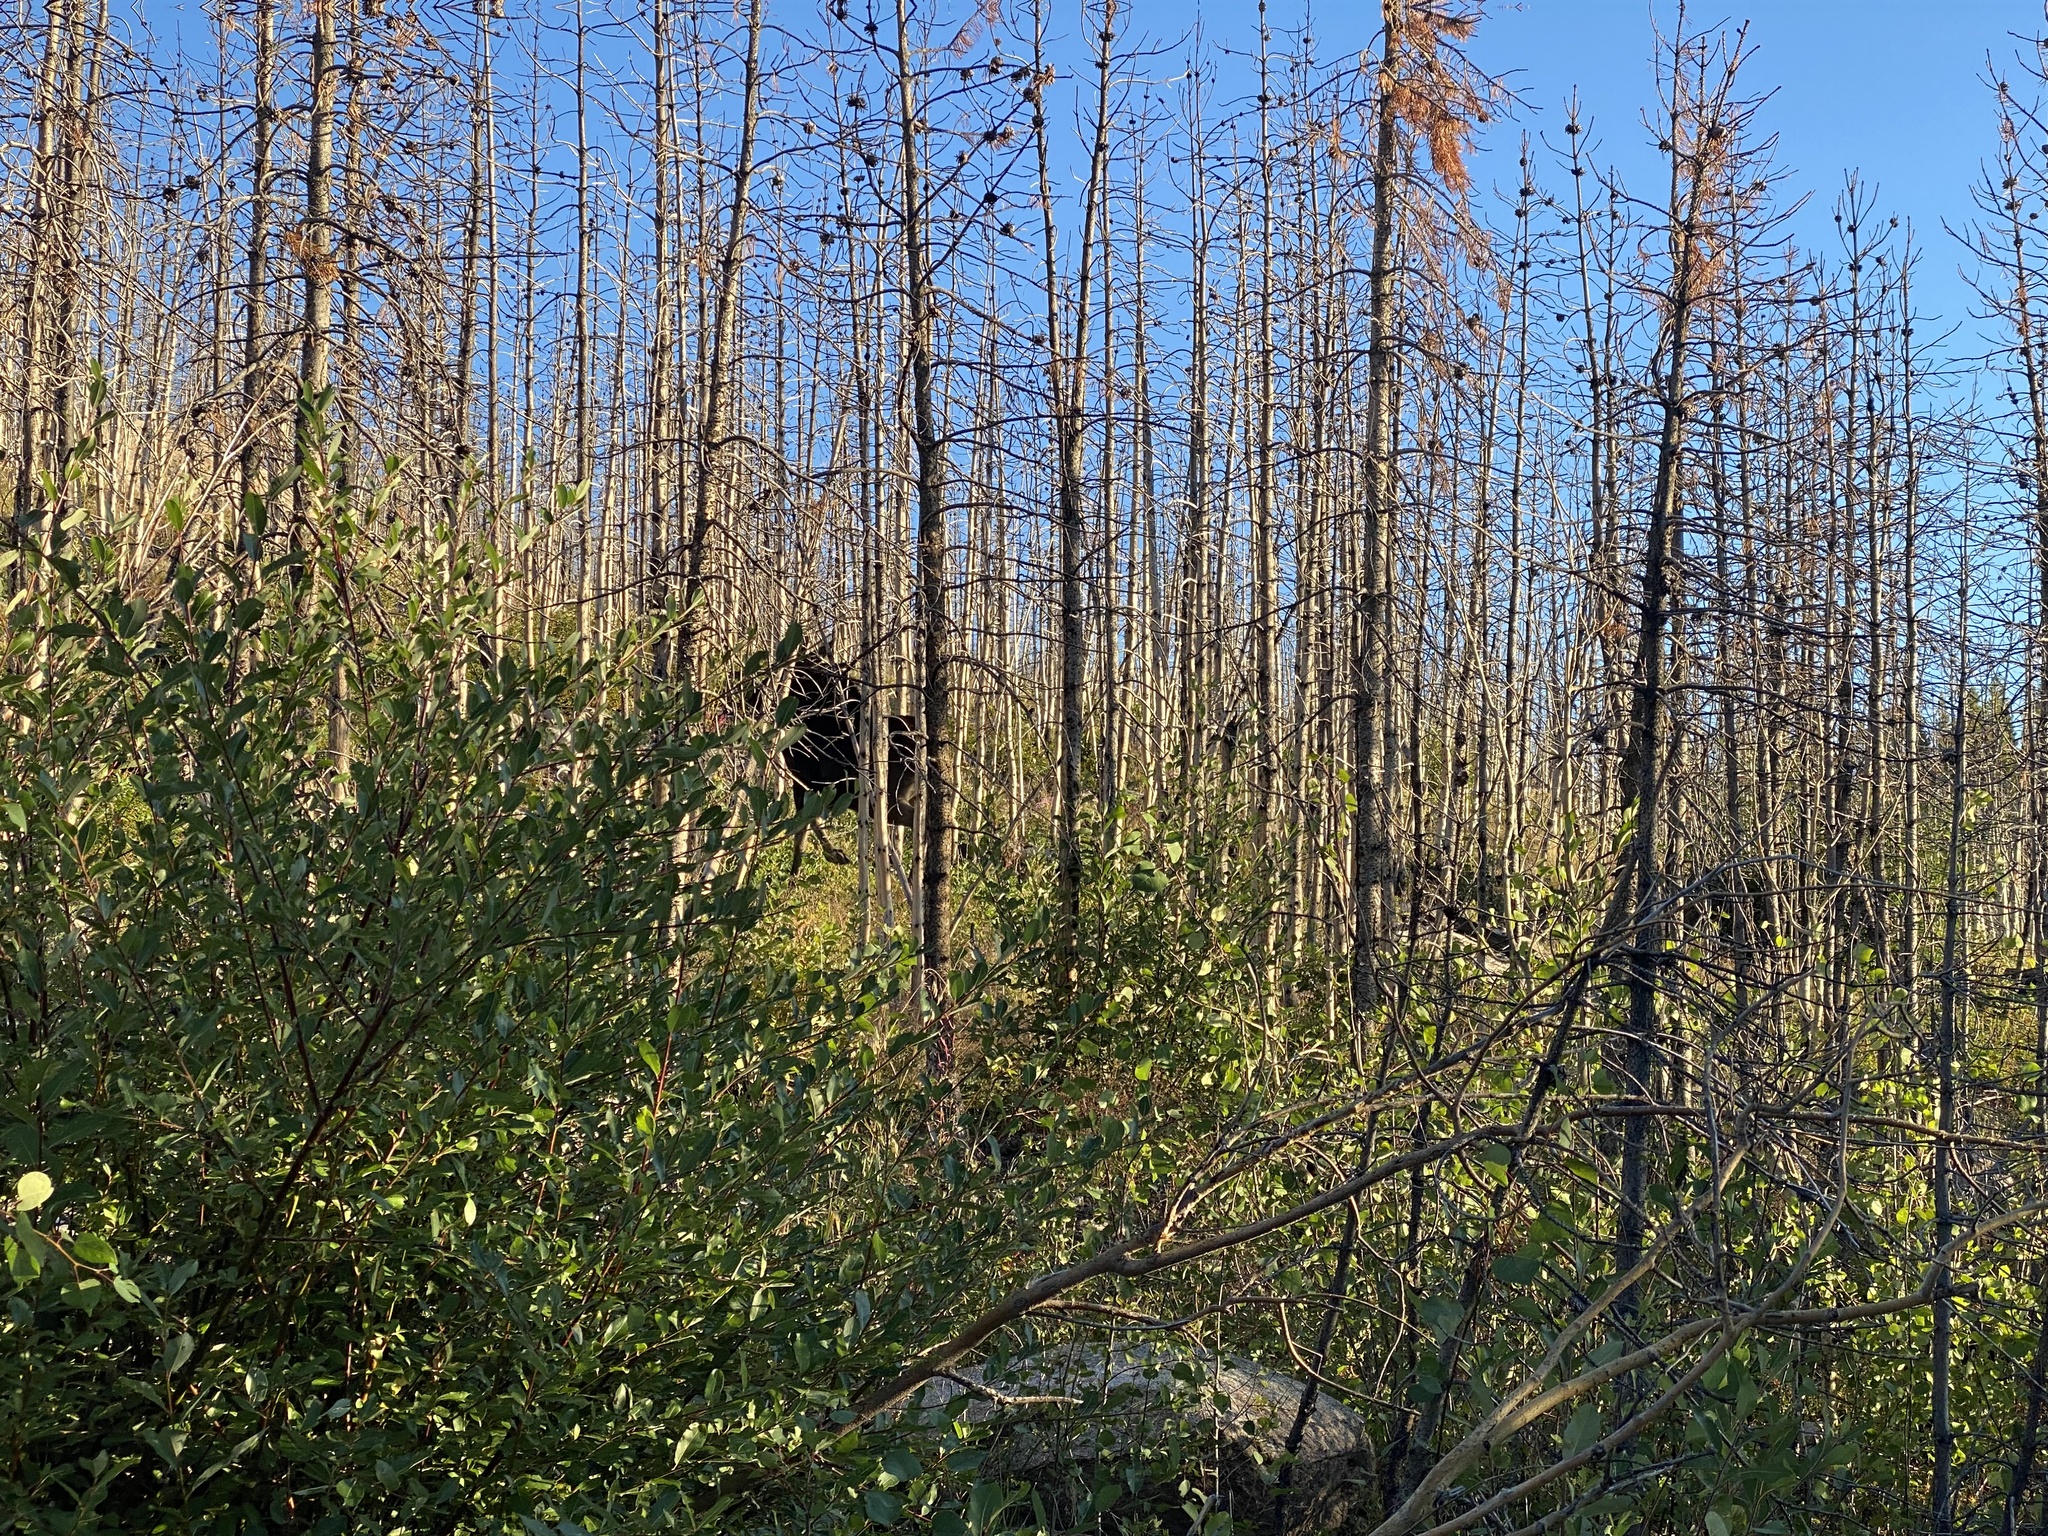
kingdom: Animalia
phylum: Chordata
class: Mammalia
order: Artiodactyla
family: Cervidae
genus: Alces
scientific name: Alces alces
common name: Moose
